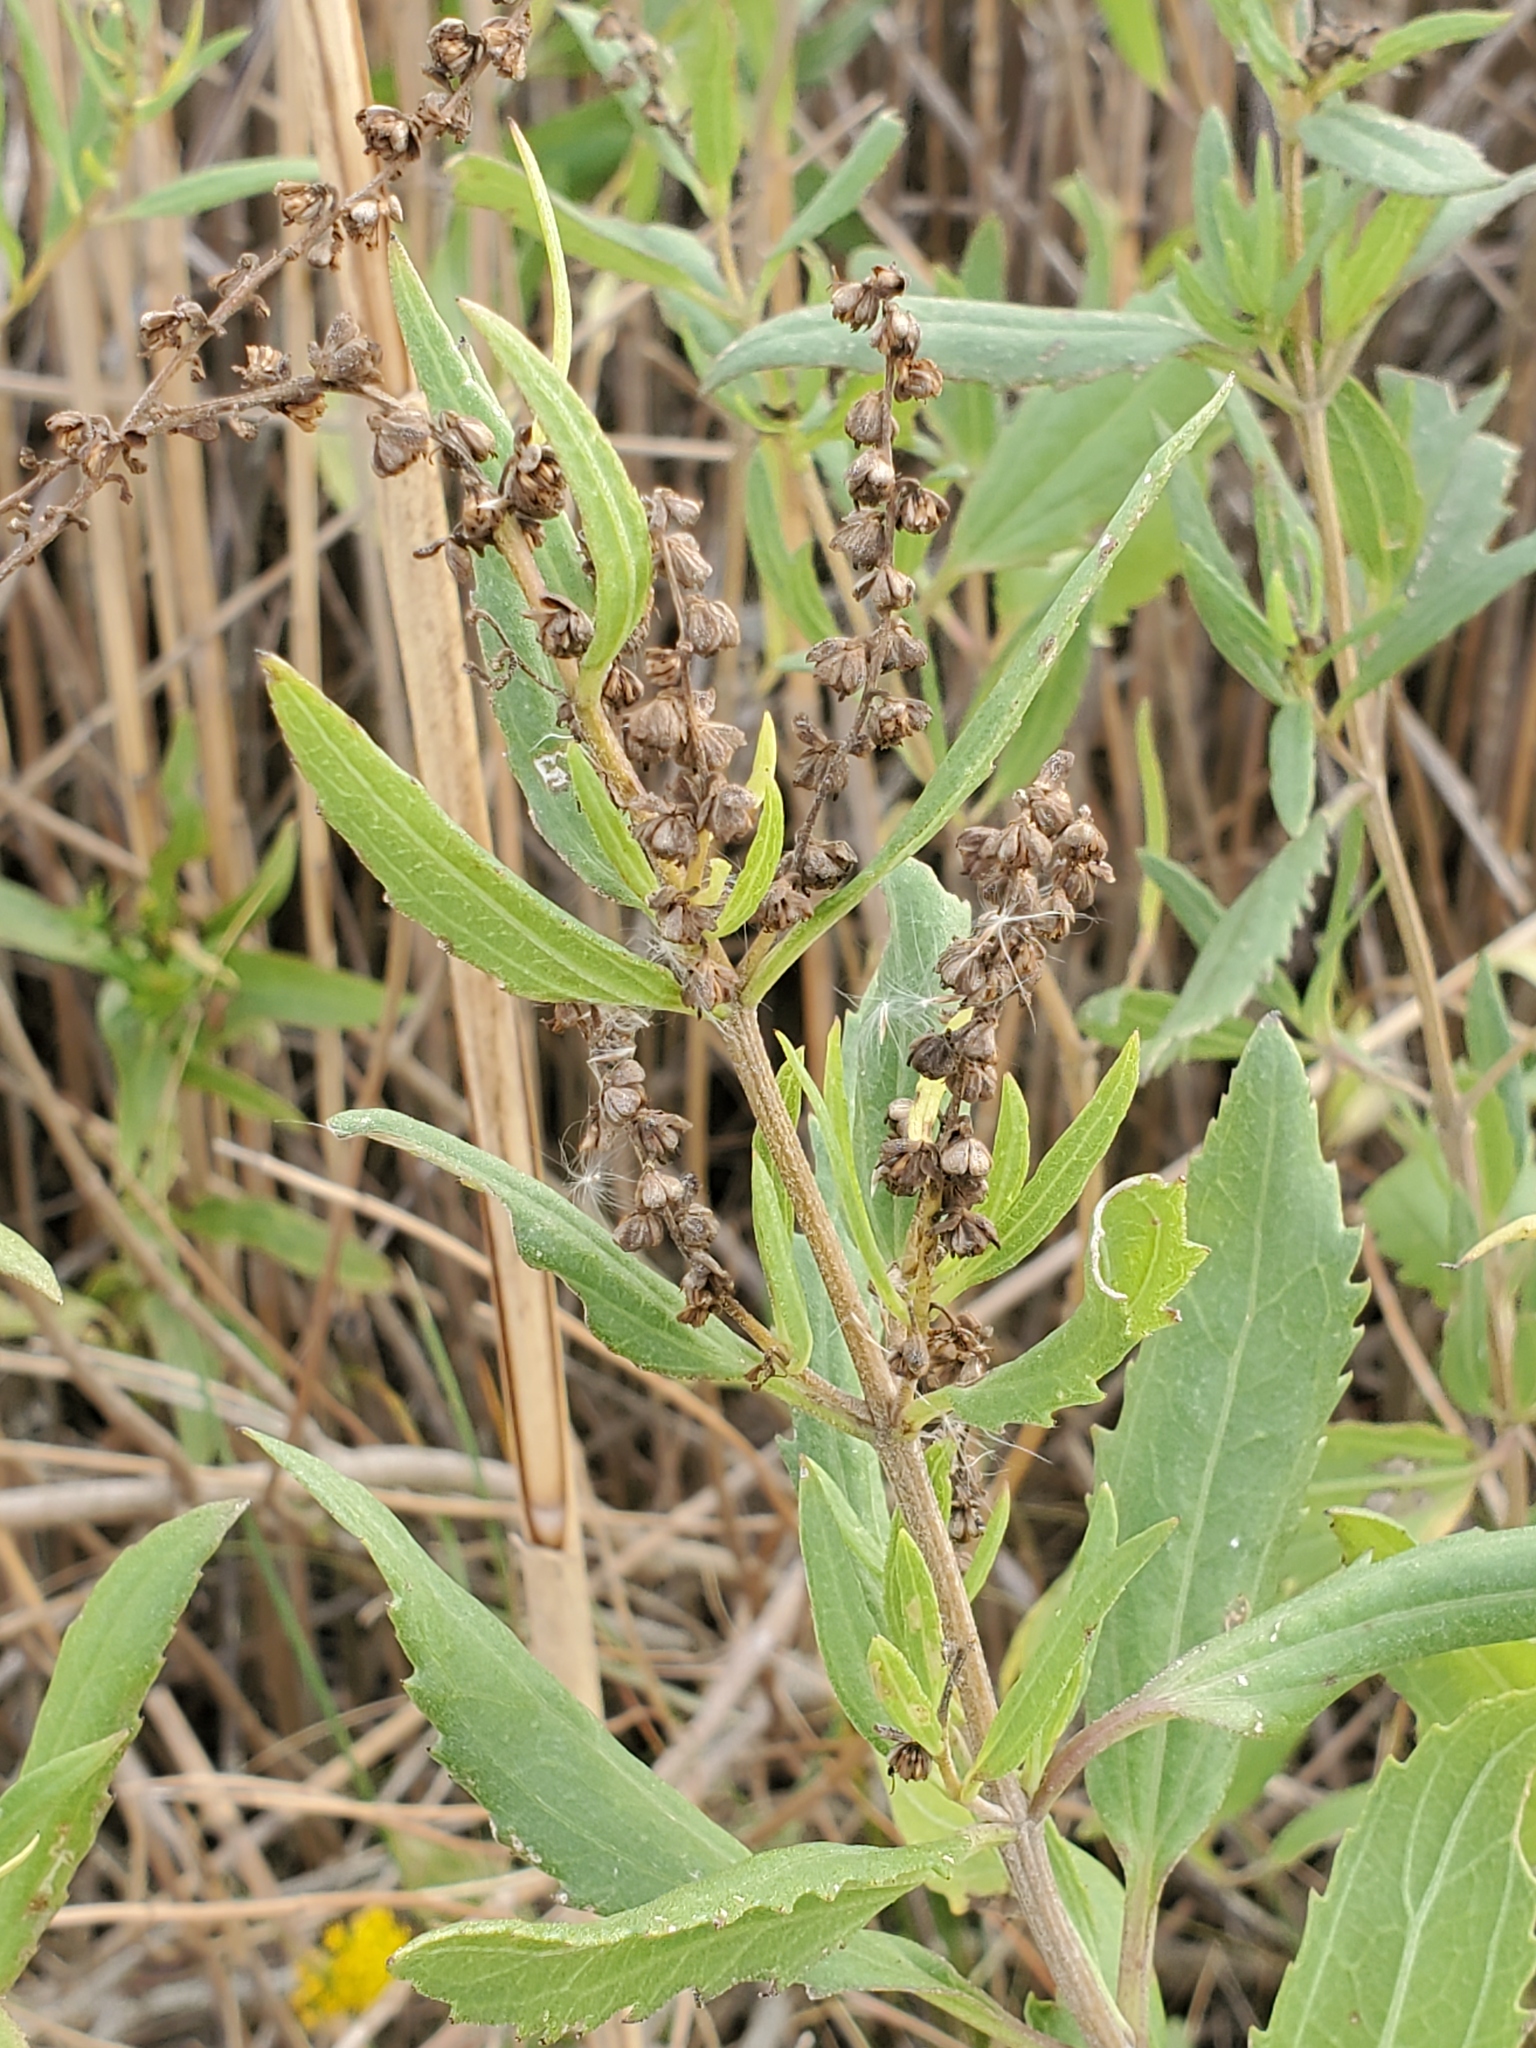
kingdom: Plantae
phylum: Tracheophyta
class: Magnoliopsida
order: Asterales
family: Asteraceae
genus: Iva
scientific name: Iva frutescens
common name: Big-leaved marsh-elder
